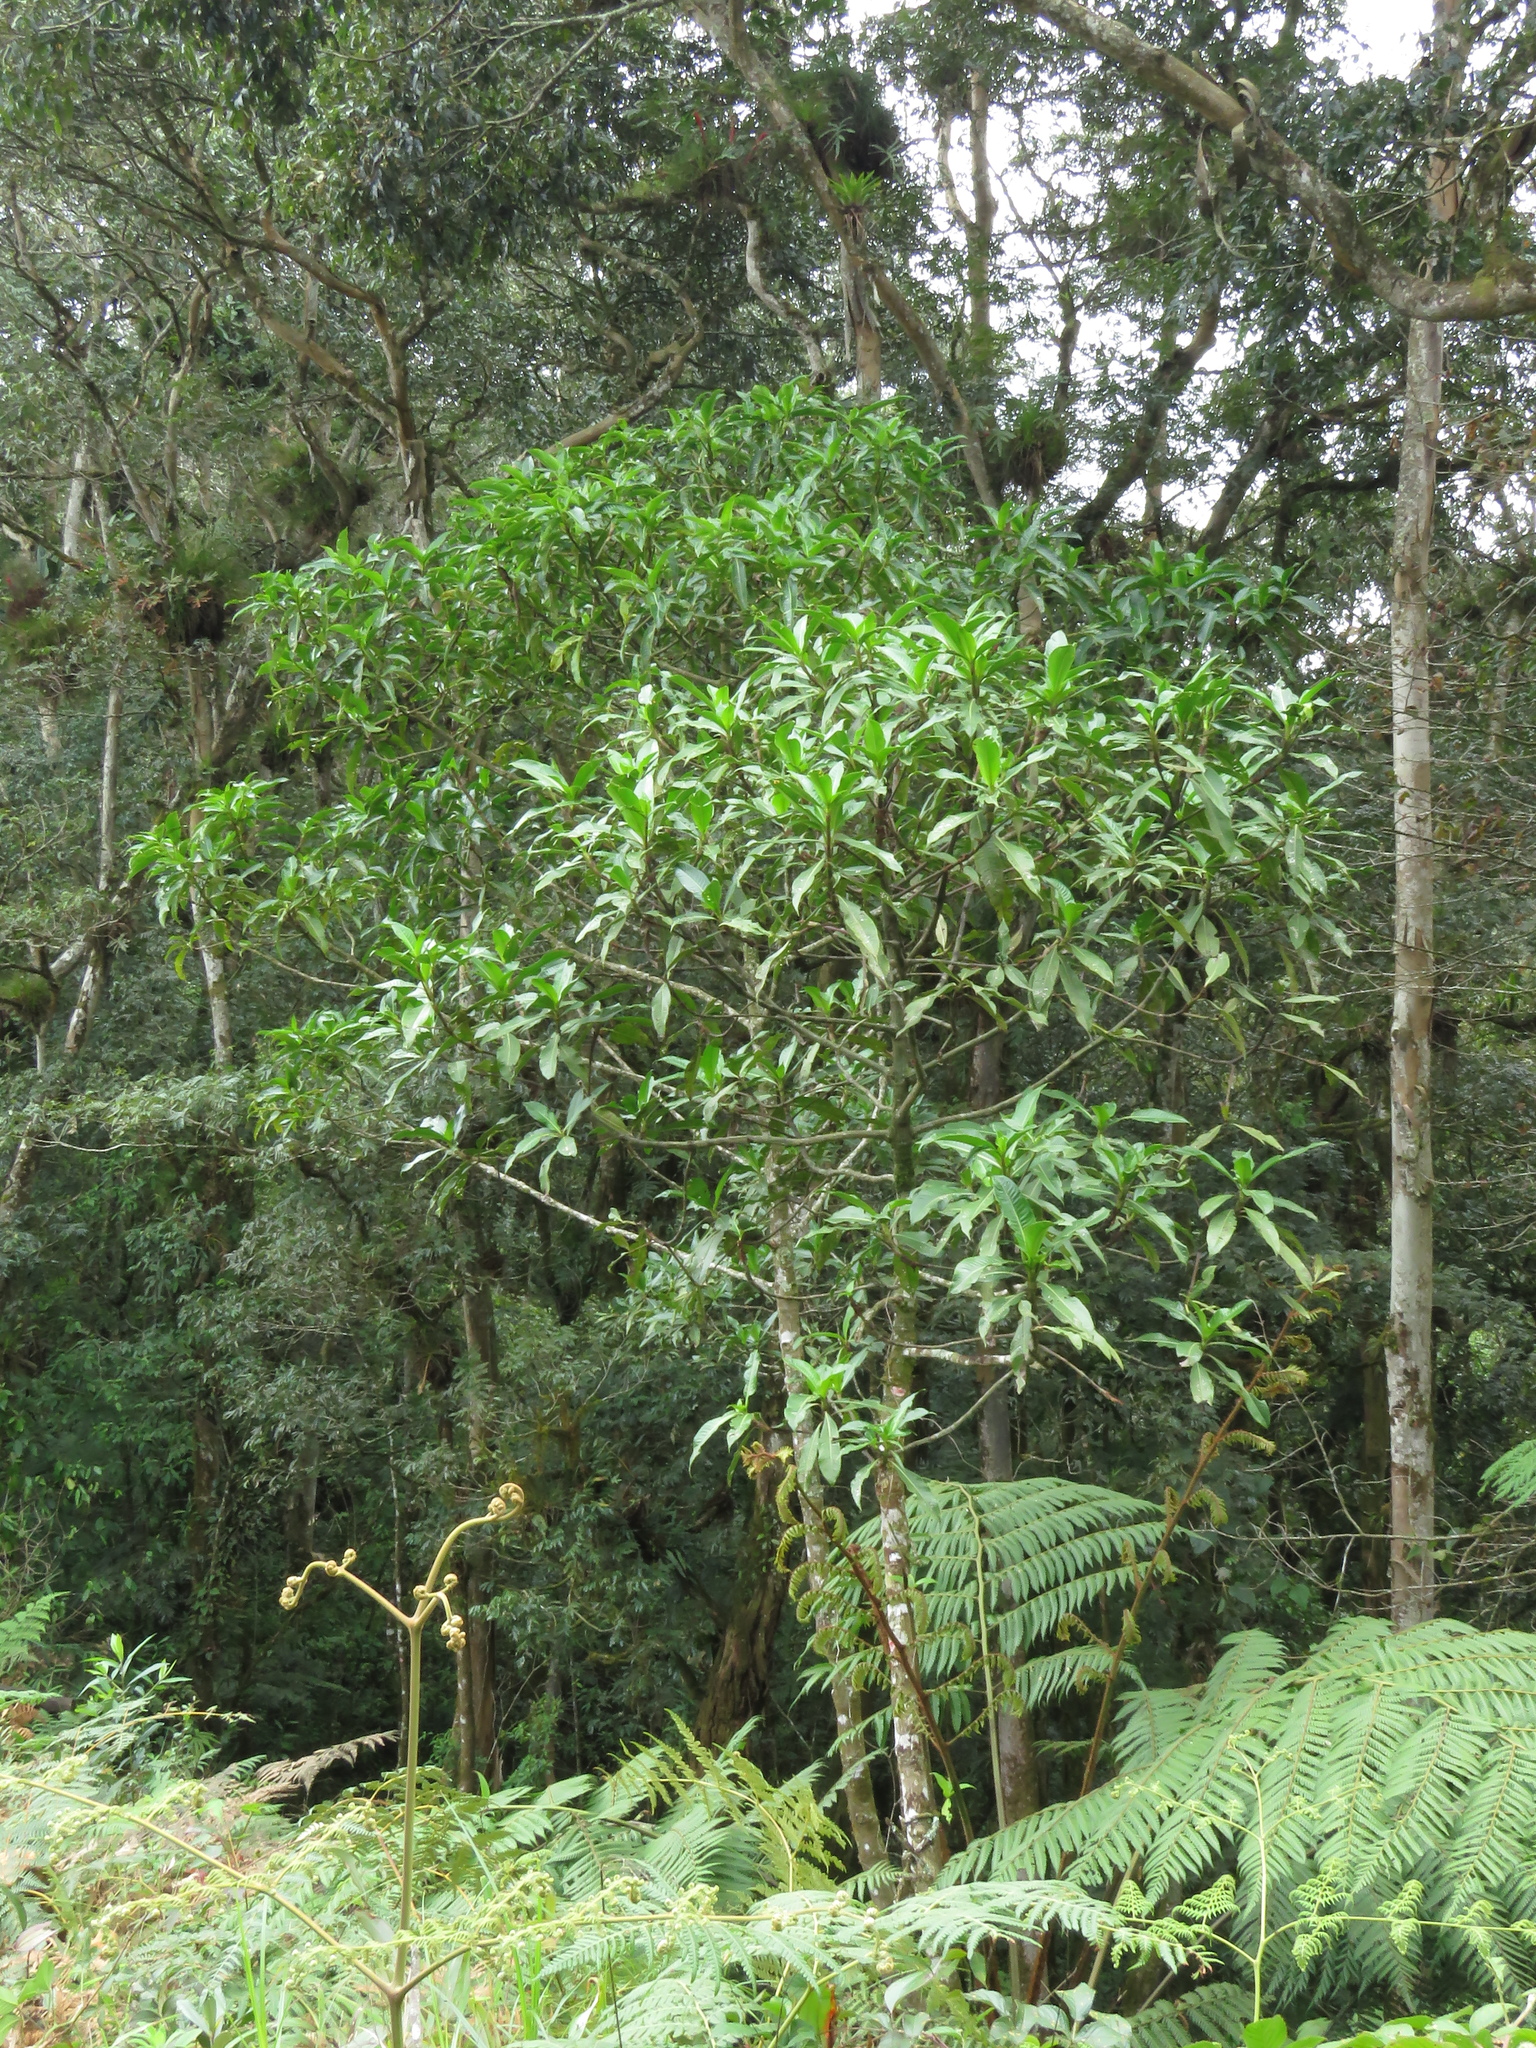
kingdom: Plantae
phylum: Tracheophyta
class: Magnoliopsida
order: Chloranthales
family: Chloranthaceae
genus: Hedyosmum
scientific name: Hedyosmum mexicanum
